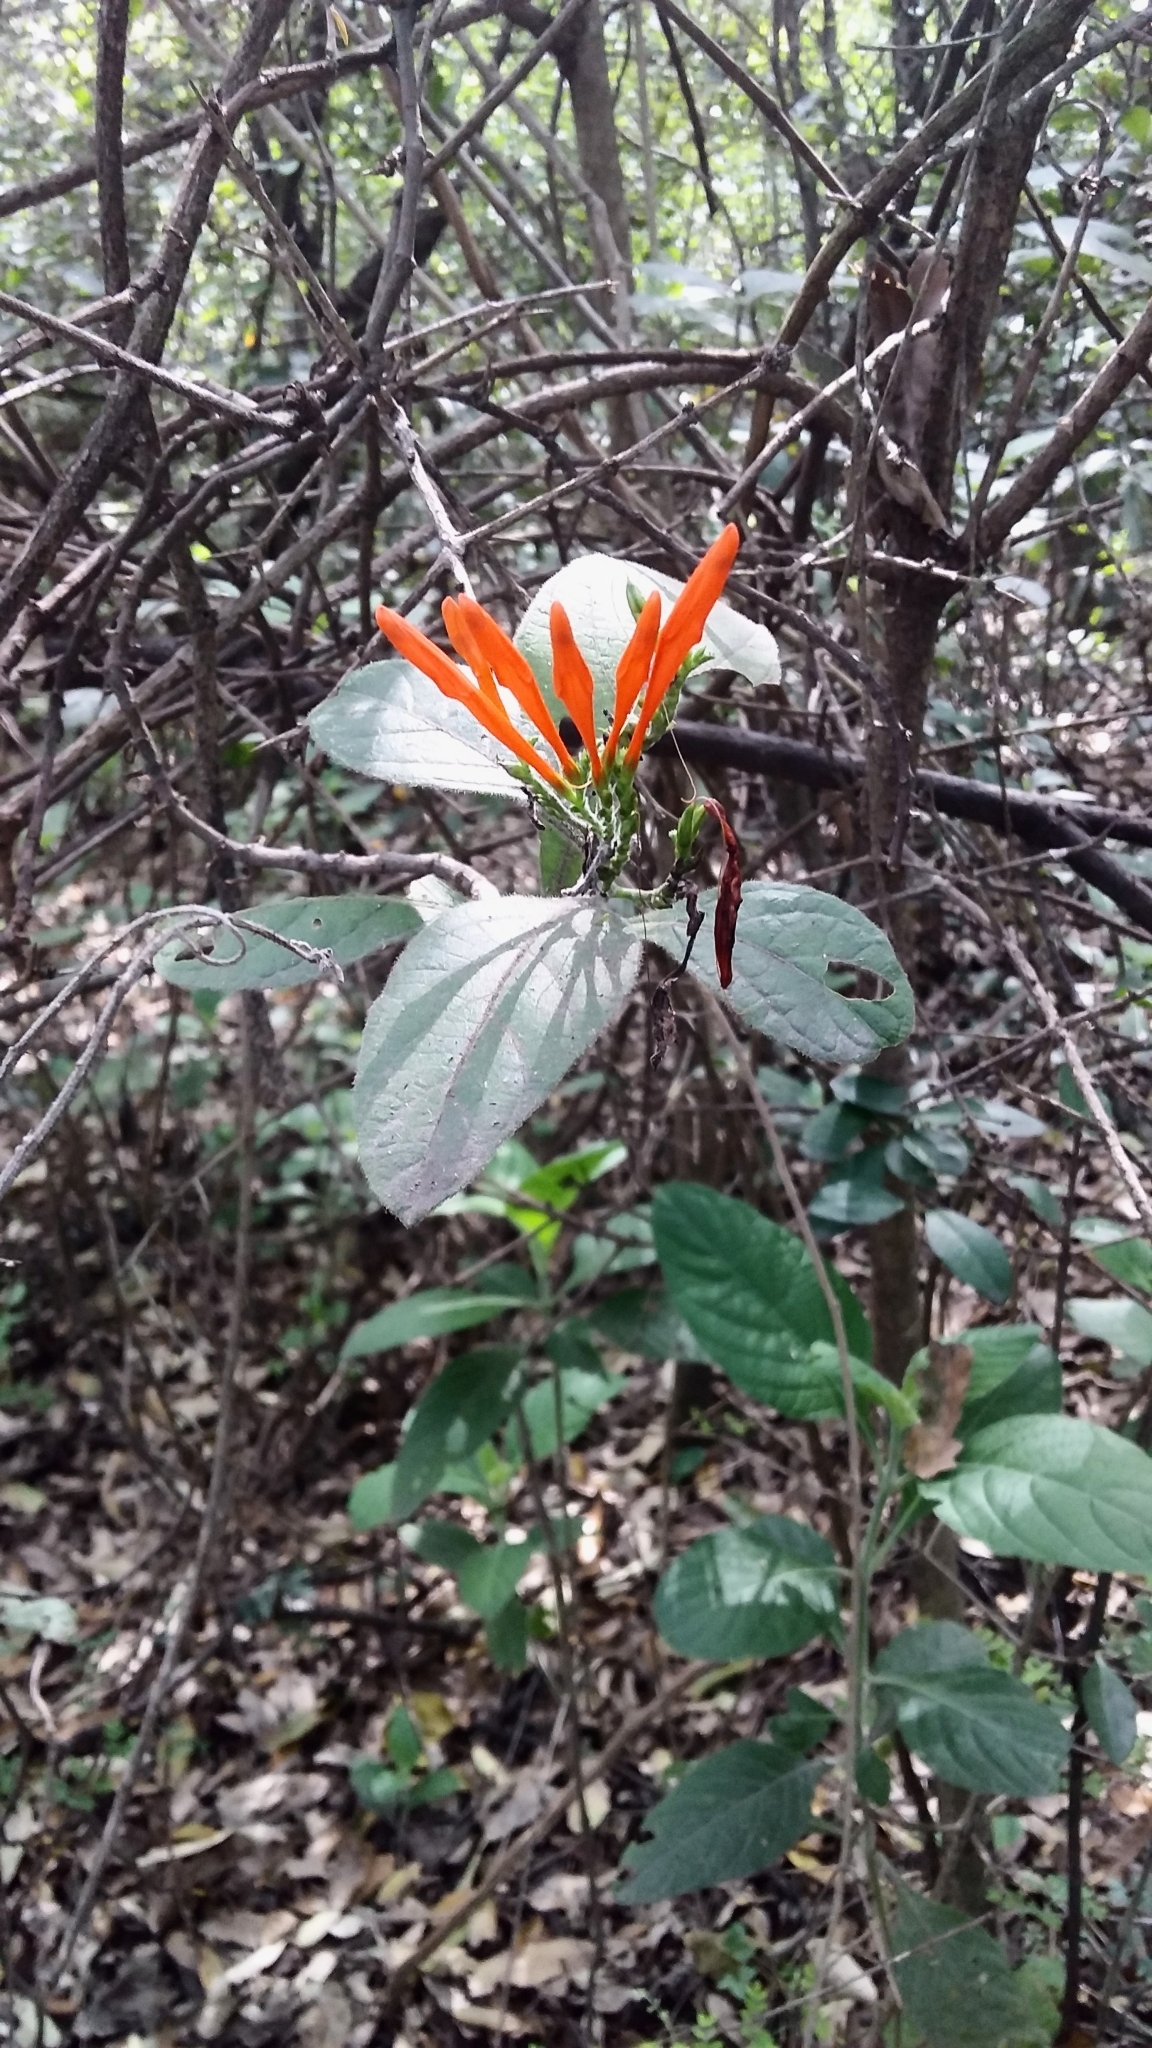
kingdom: Plantae
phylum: Tracheophyta
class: Magnoliopsida
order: Lamiales
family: Acanthaceae
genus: Justicia
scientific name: Justicia spicigera
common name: Mohintli
